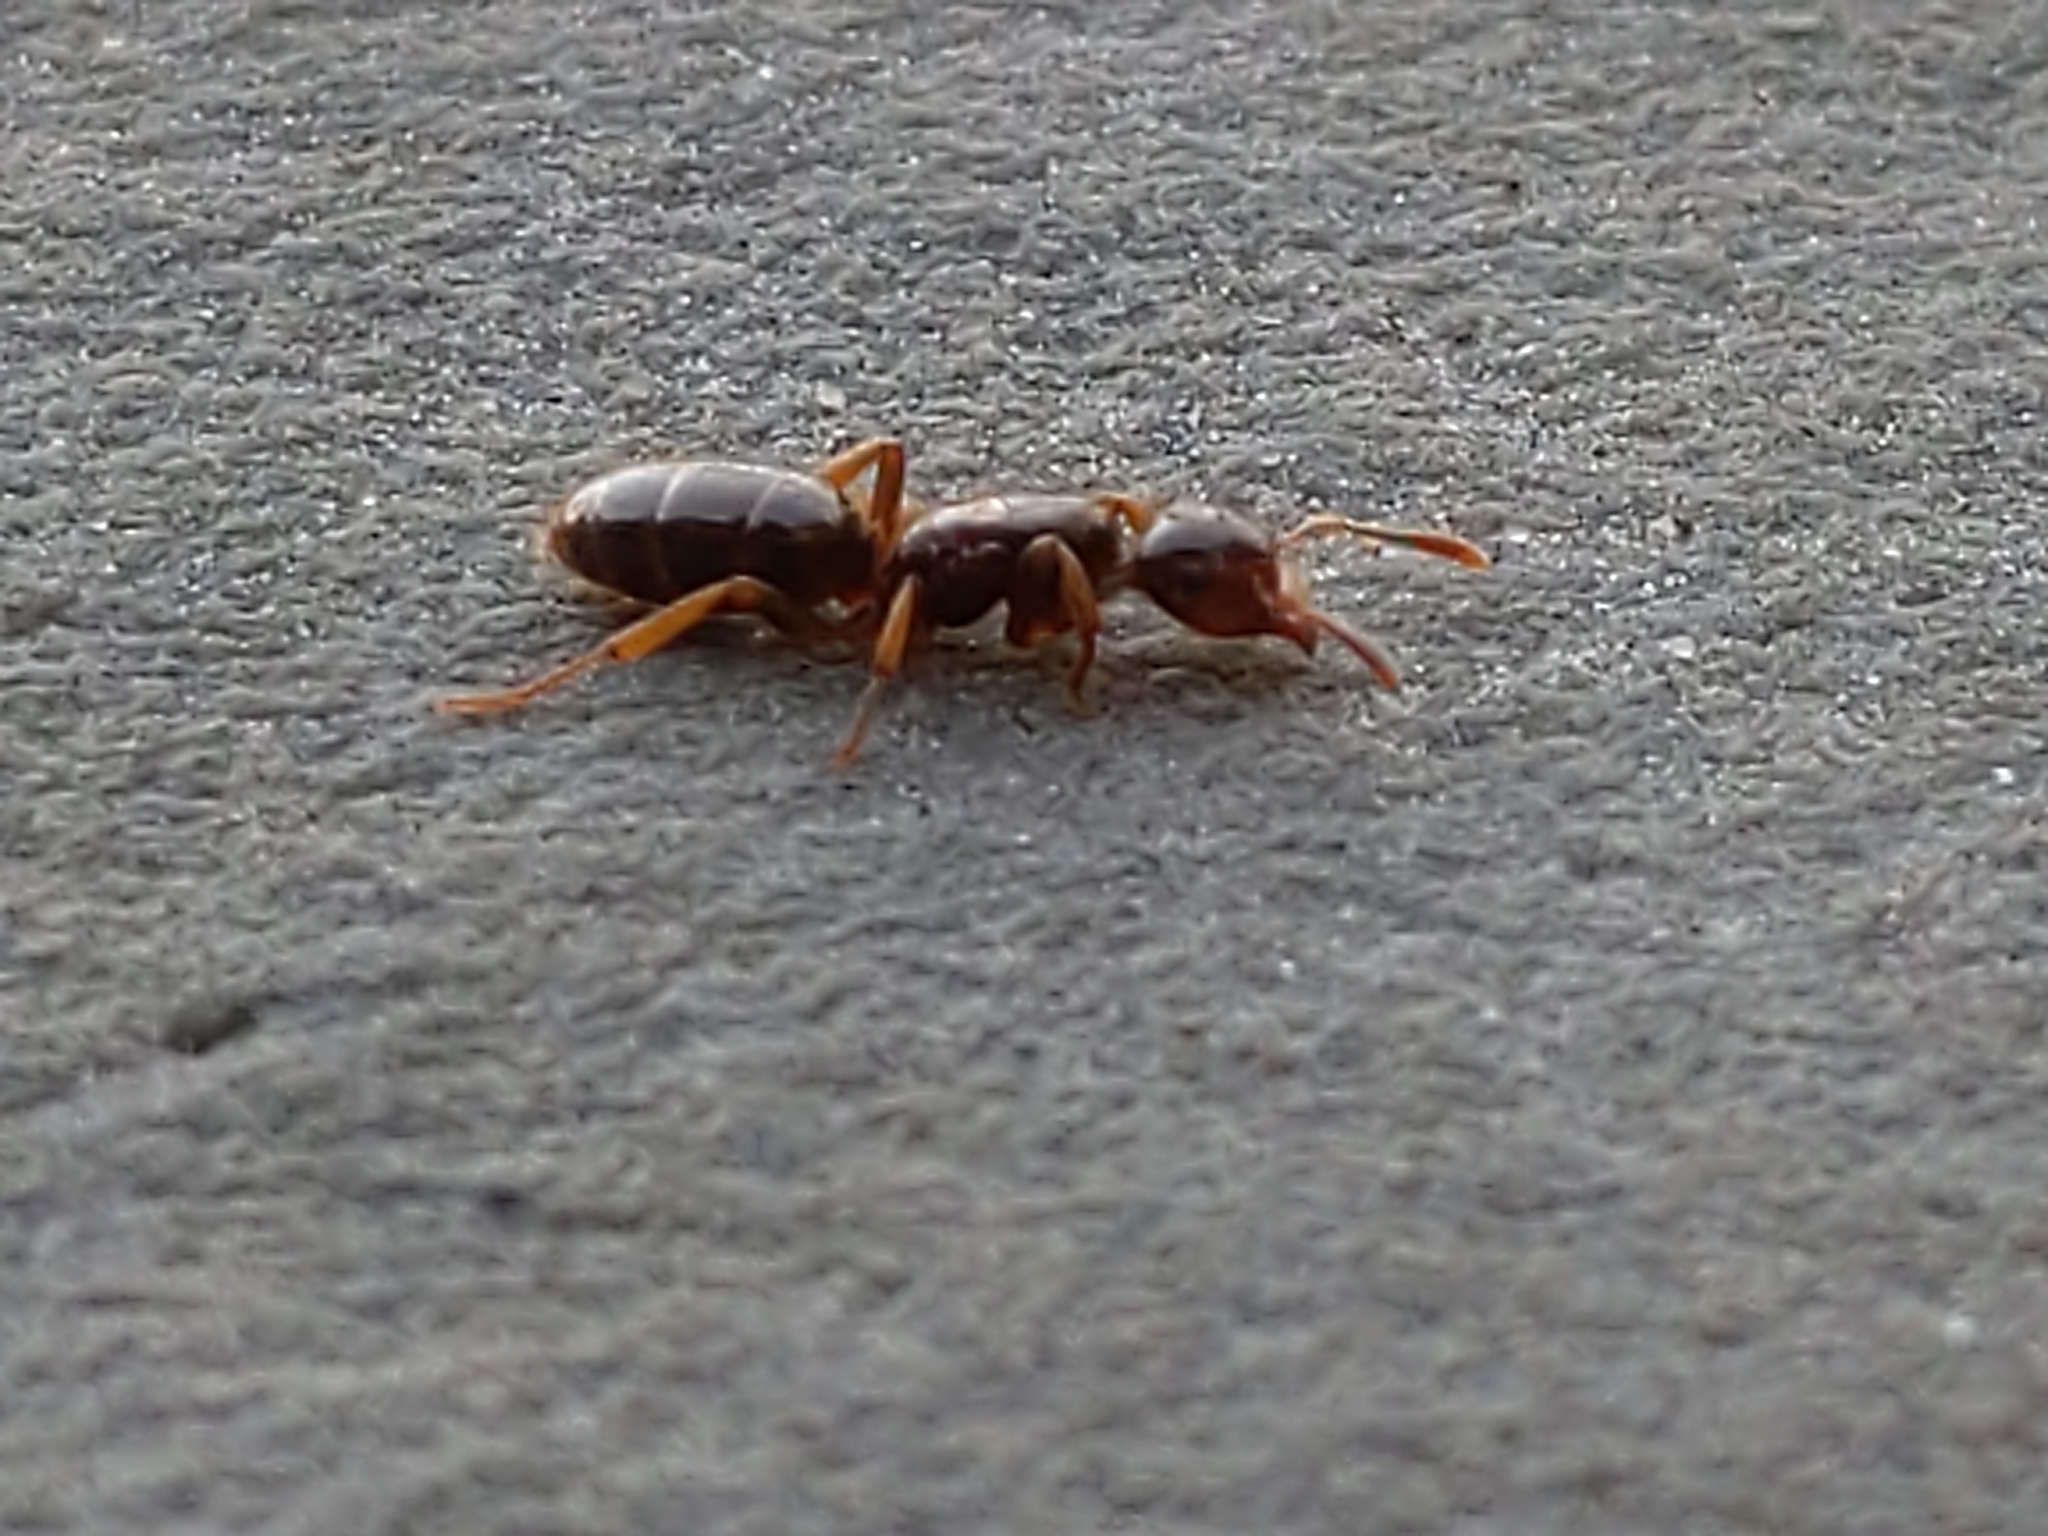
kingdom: Animalia
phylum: Arthropoda
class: Insecta
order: Hymenoptera
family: Formicidae
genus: Lasius
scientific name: Lasius claviger
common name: Common citronella ant
